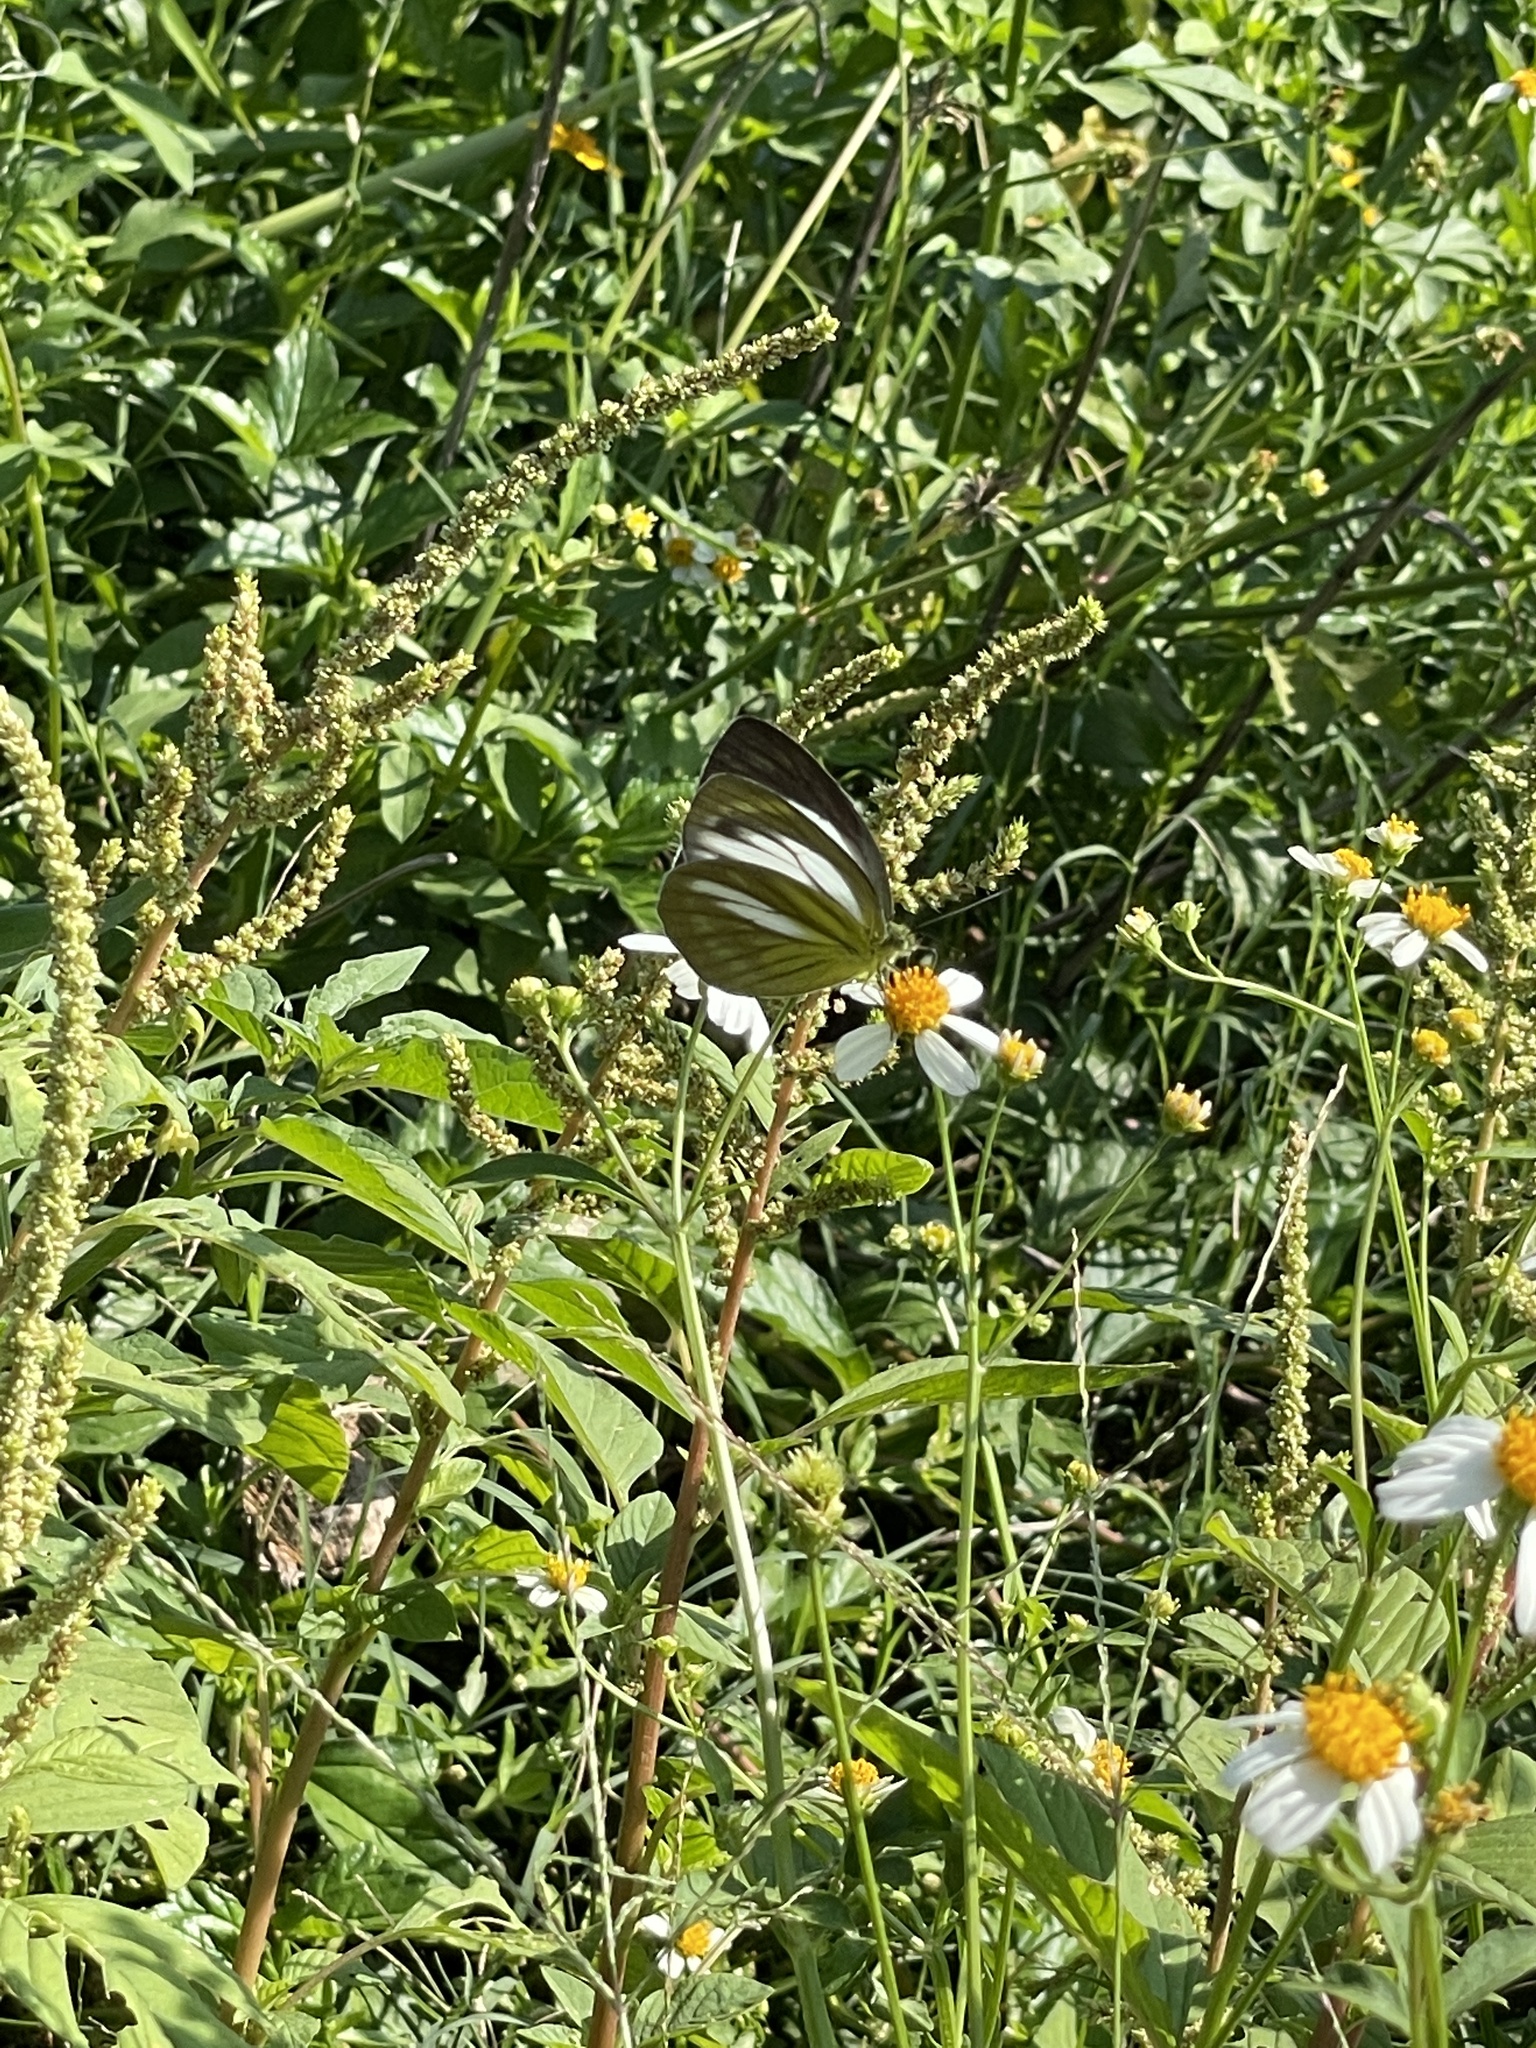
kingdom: Animalia
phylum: Arthropoda
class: Insecta
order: Lepidoptera
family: Pieridae
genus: Cepora
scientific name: Cepora nadina
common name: Lesser gull
